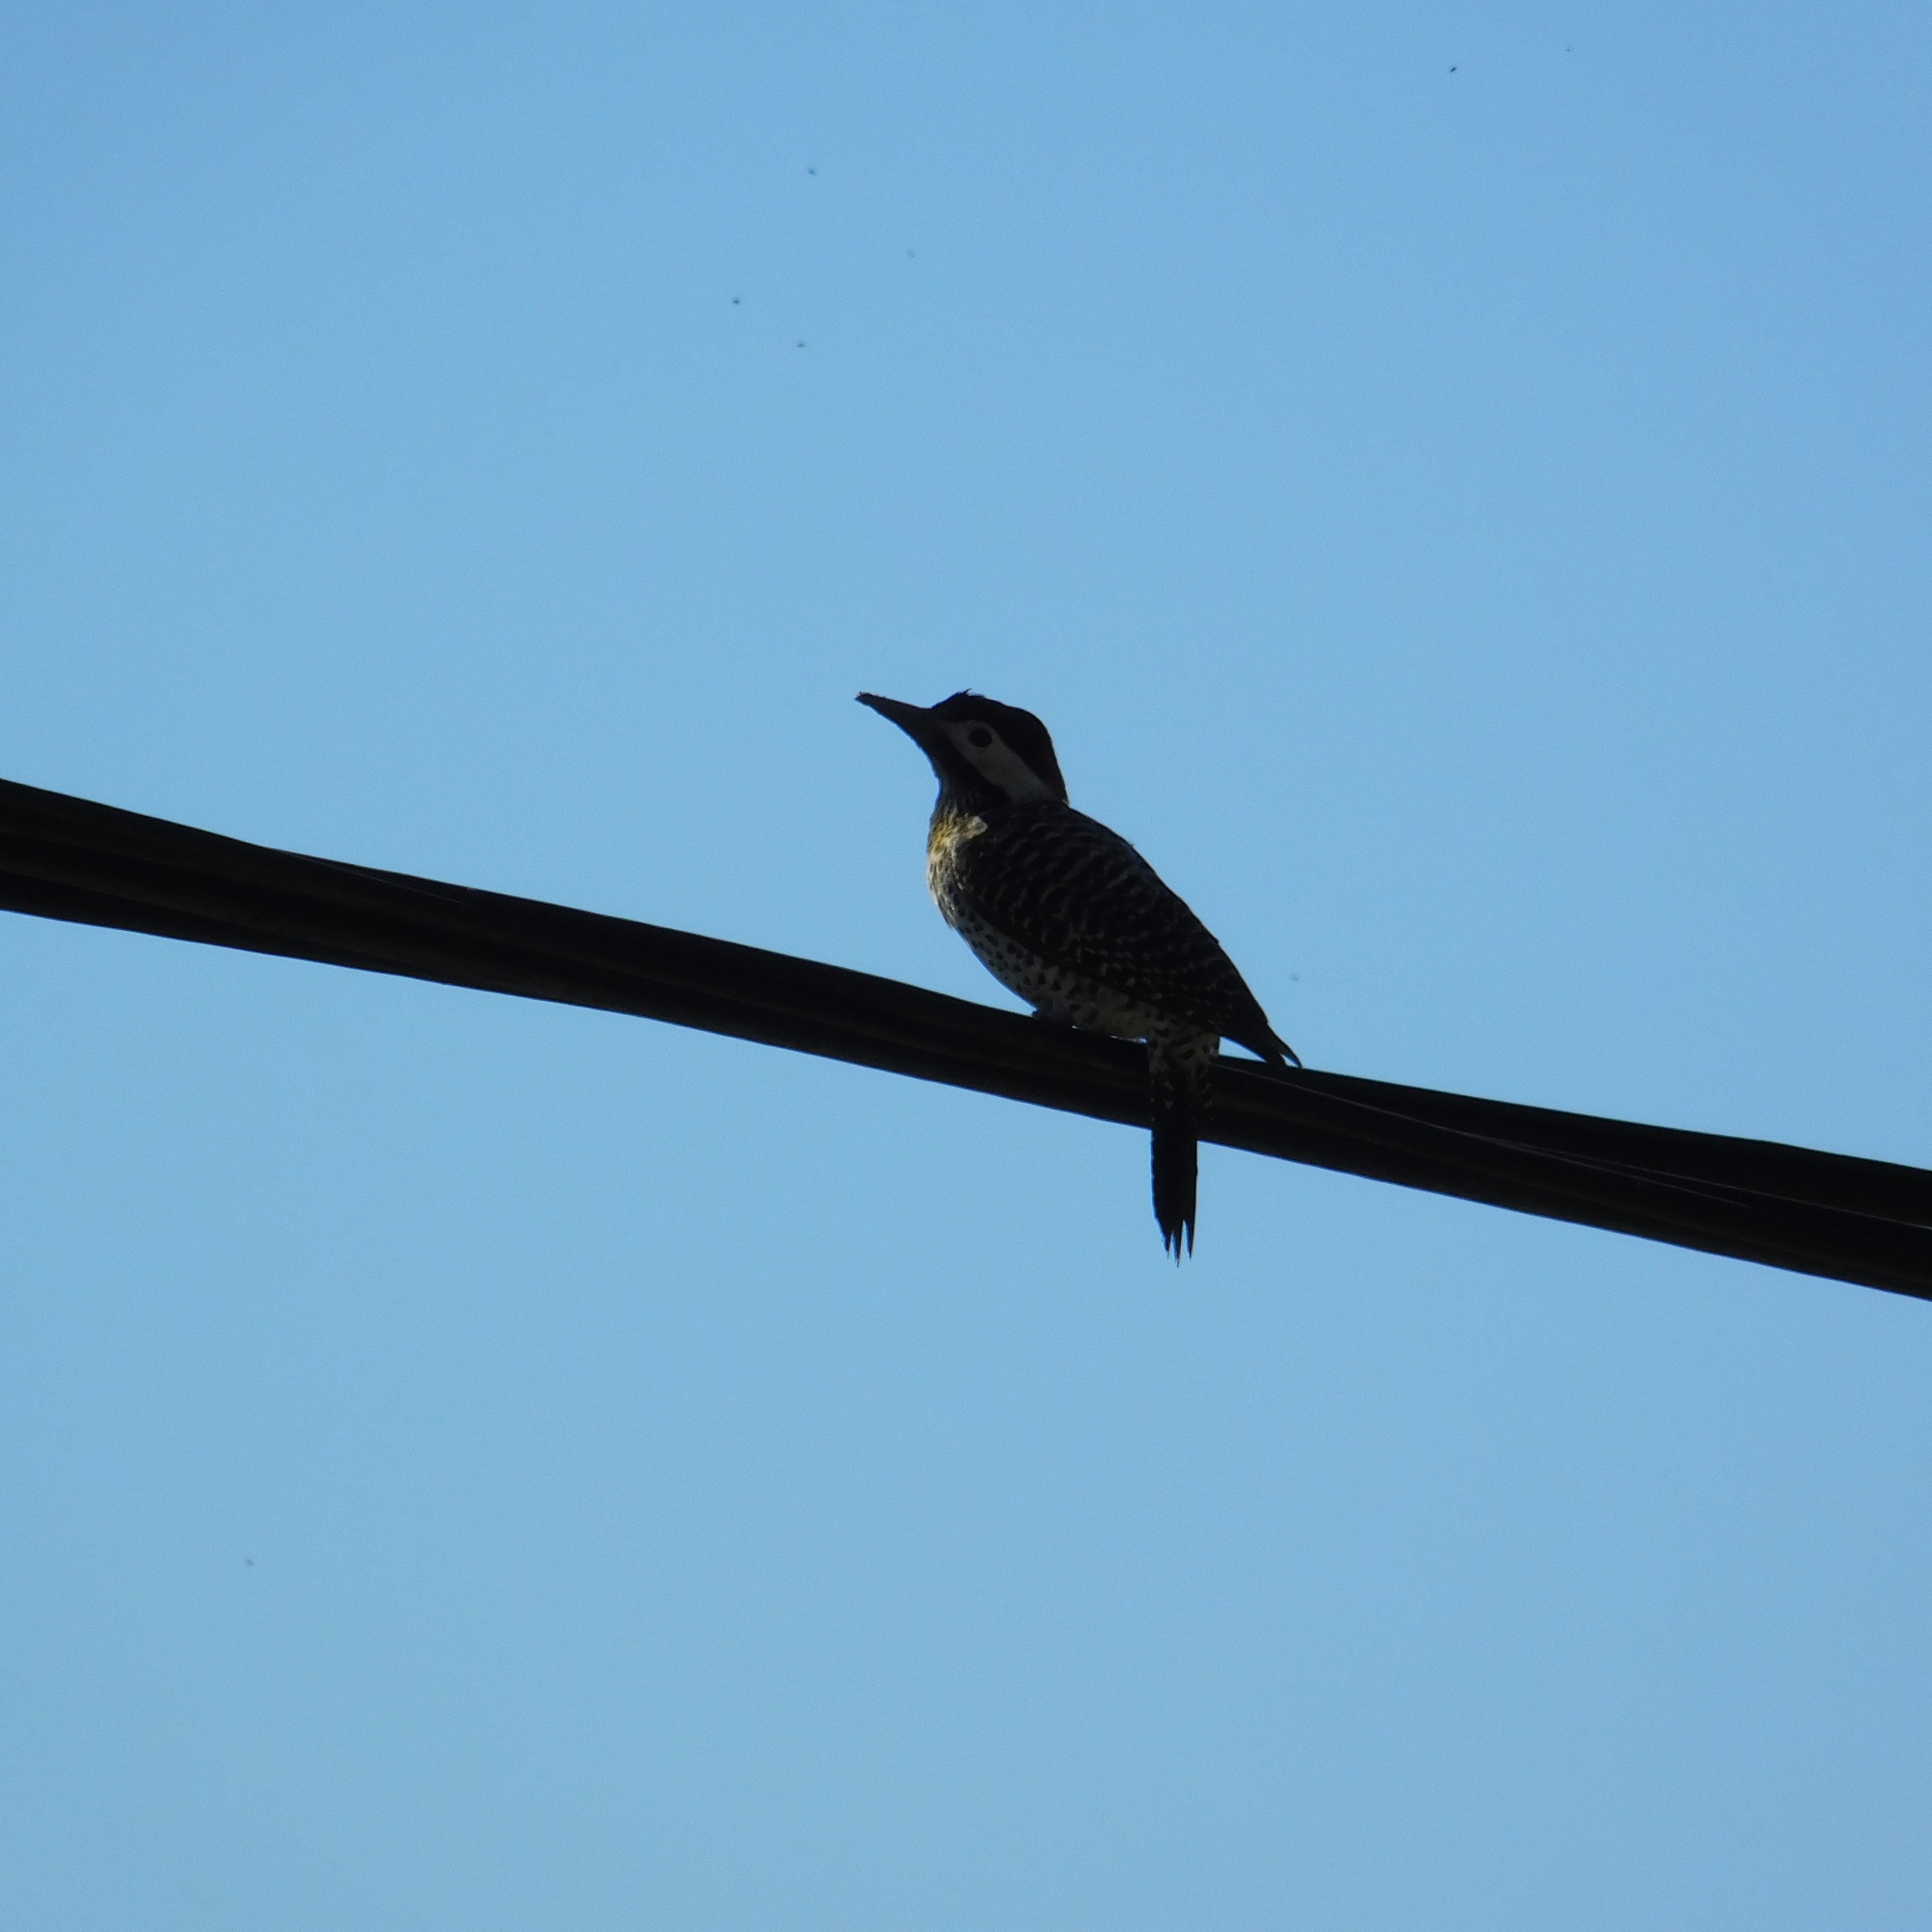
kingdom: Animalia
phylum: Chordata
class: Aves
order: Piciformes
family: Picidae
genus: Colaptes
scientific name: Colaptes melanochloros
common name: Green-barred woodpecker
